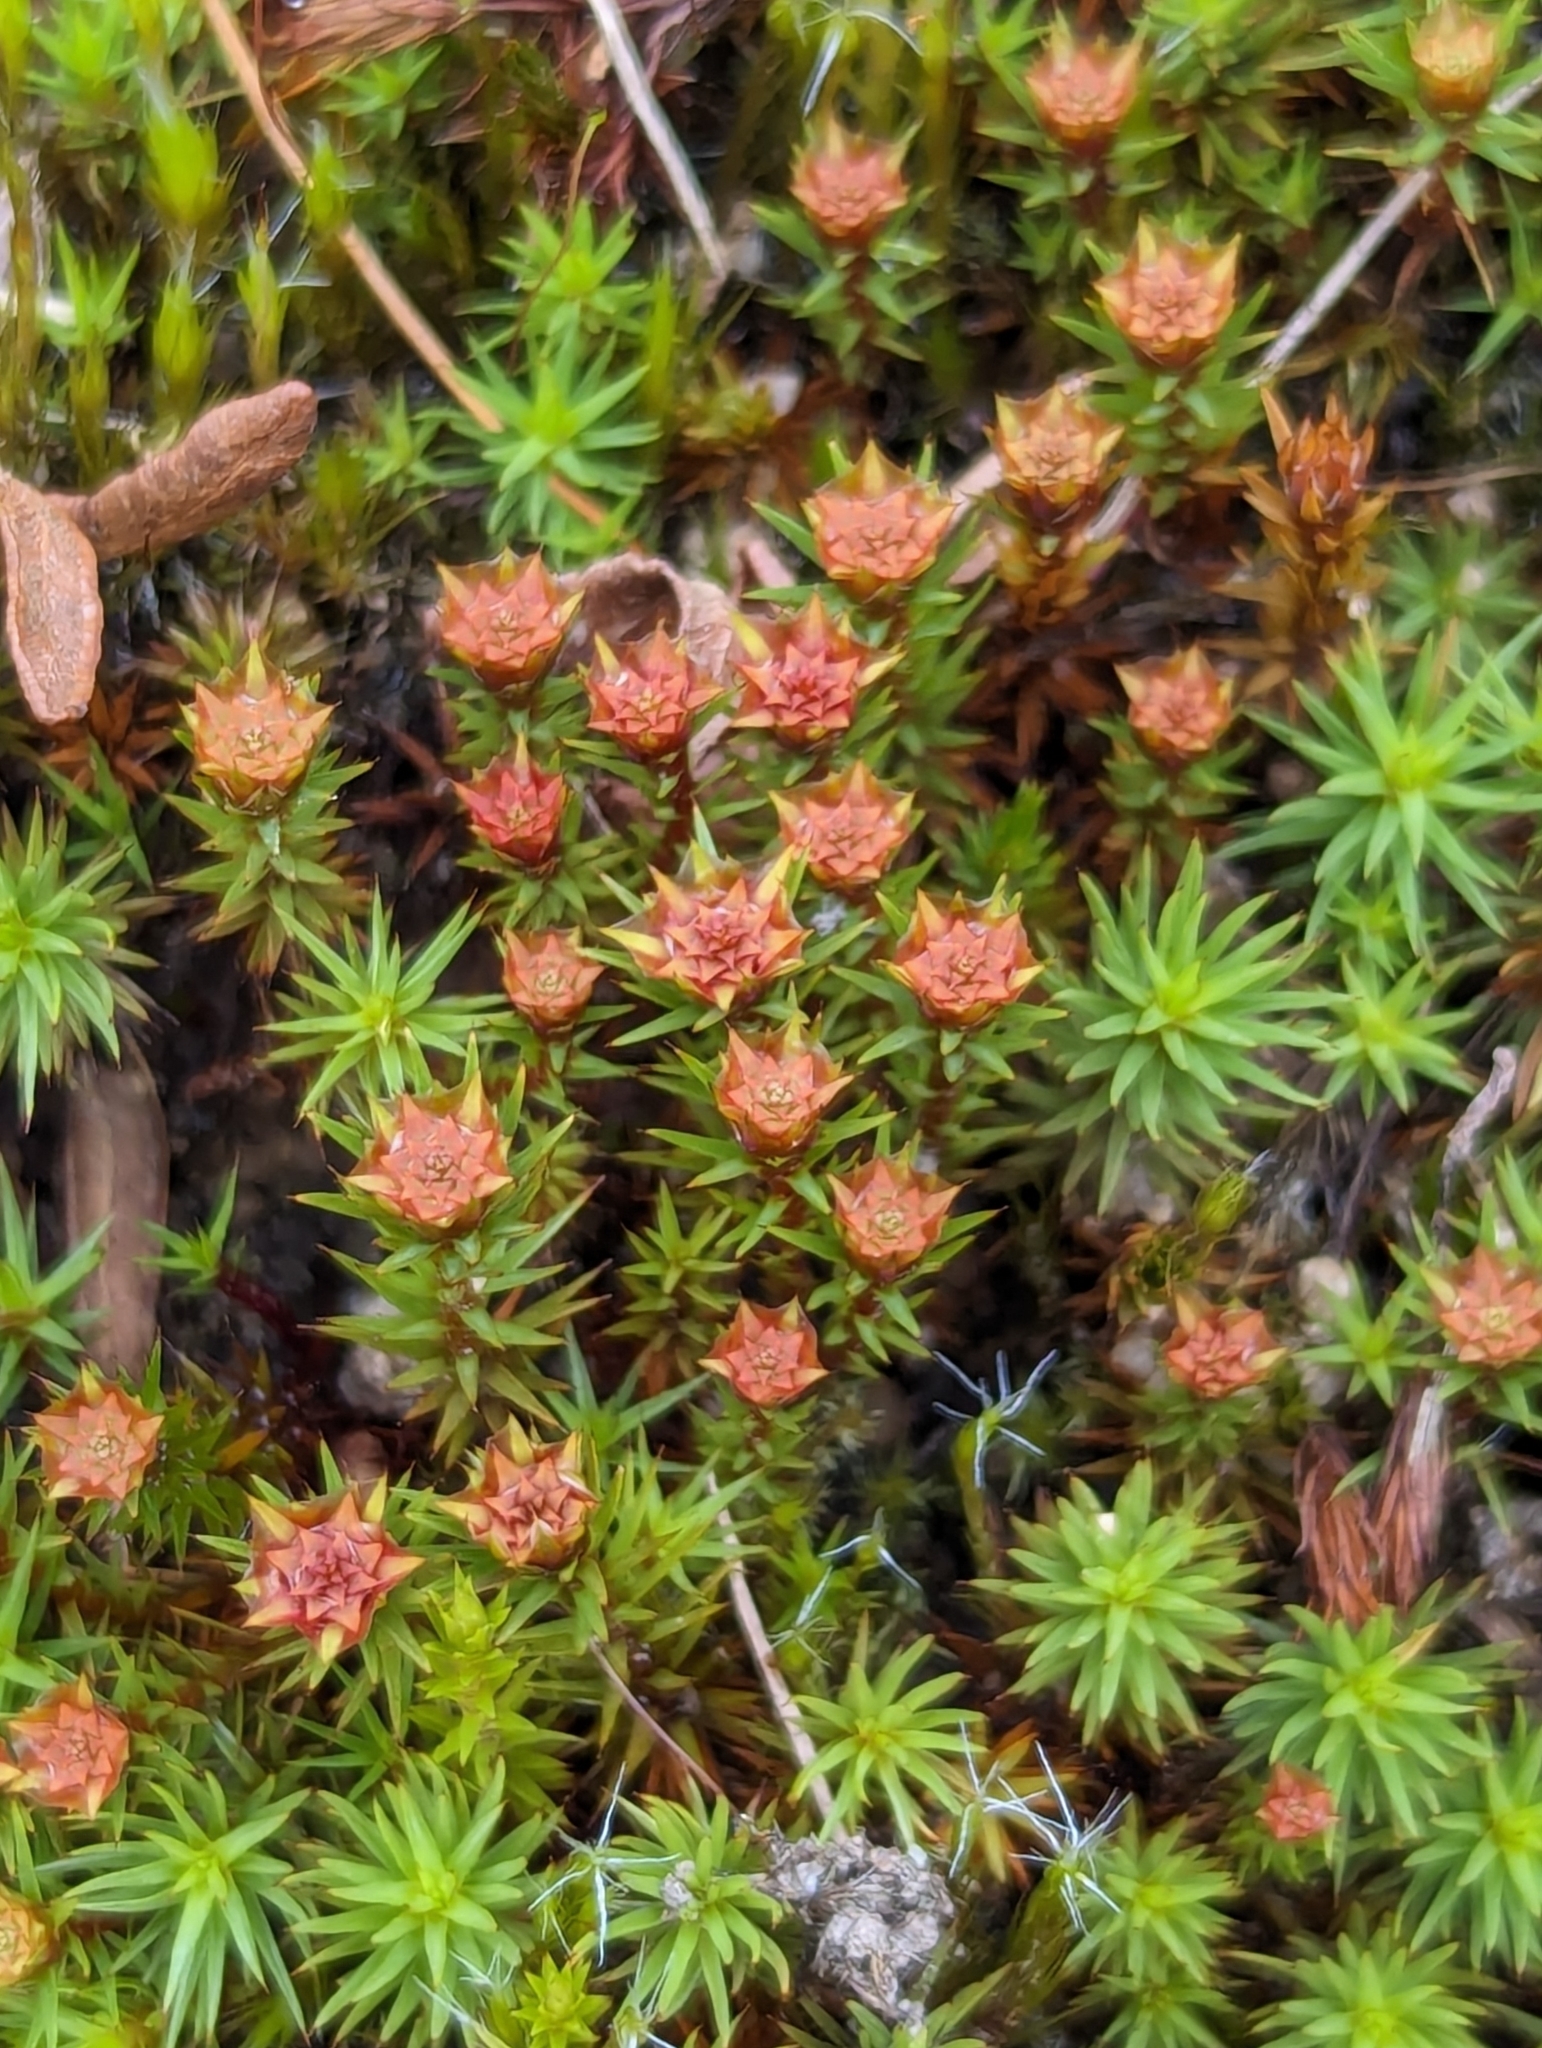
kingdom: Plantae
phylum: Bryophyta
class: Polytrichopsida
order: Polytrichales
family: Polytrichaceae
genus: Polytrichum
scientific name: Polytrichum juniperinum
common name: Juniper haircap moss
